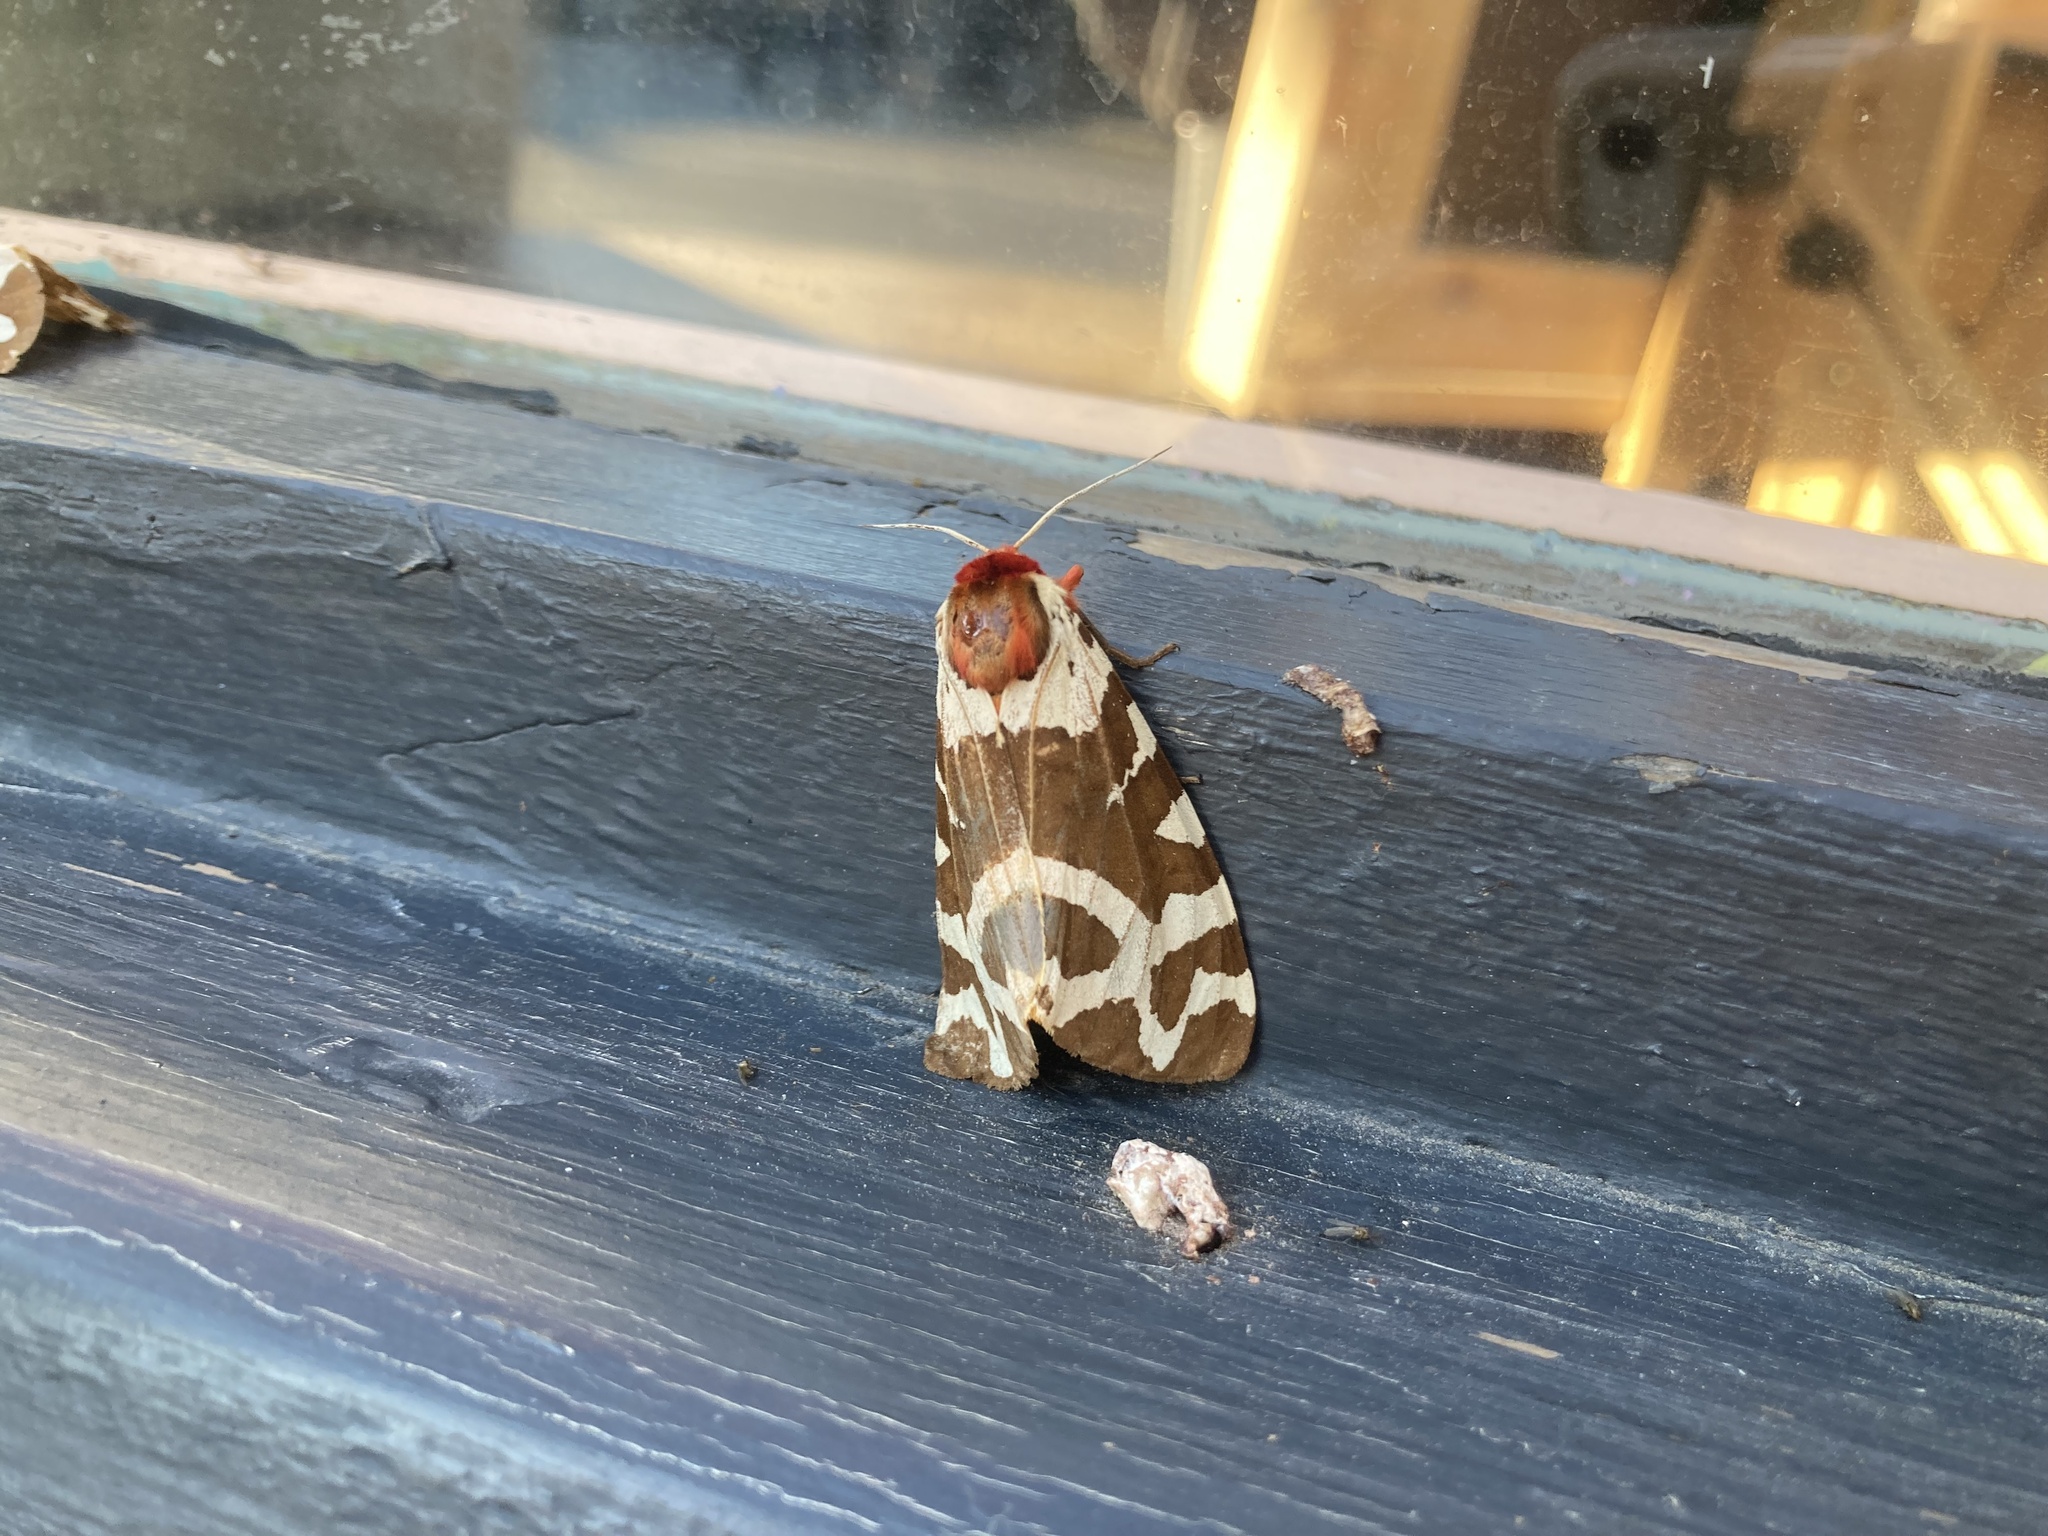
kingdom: Animalia
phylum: Arthropoda
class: Insecta
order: Lepidoptera
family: Erebidae
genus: Arctia
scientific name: Arctia caja
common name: Garden tiger
